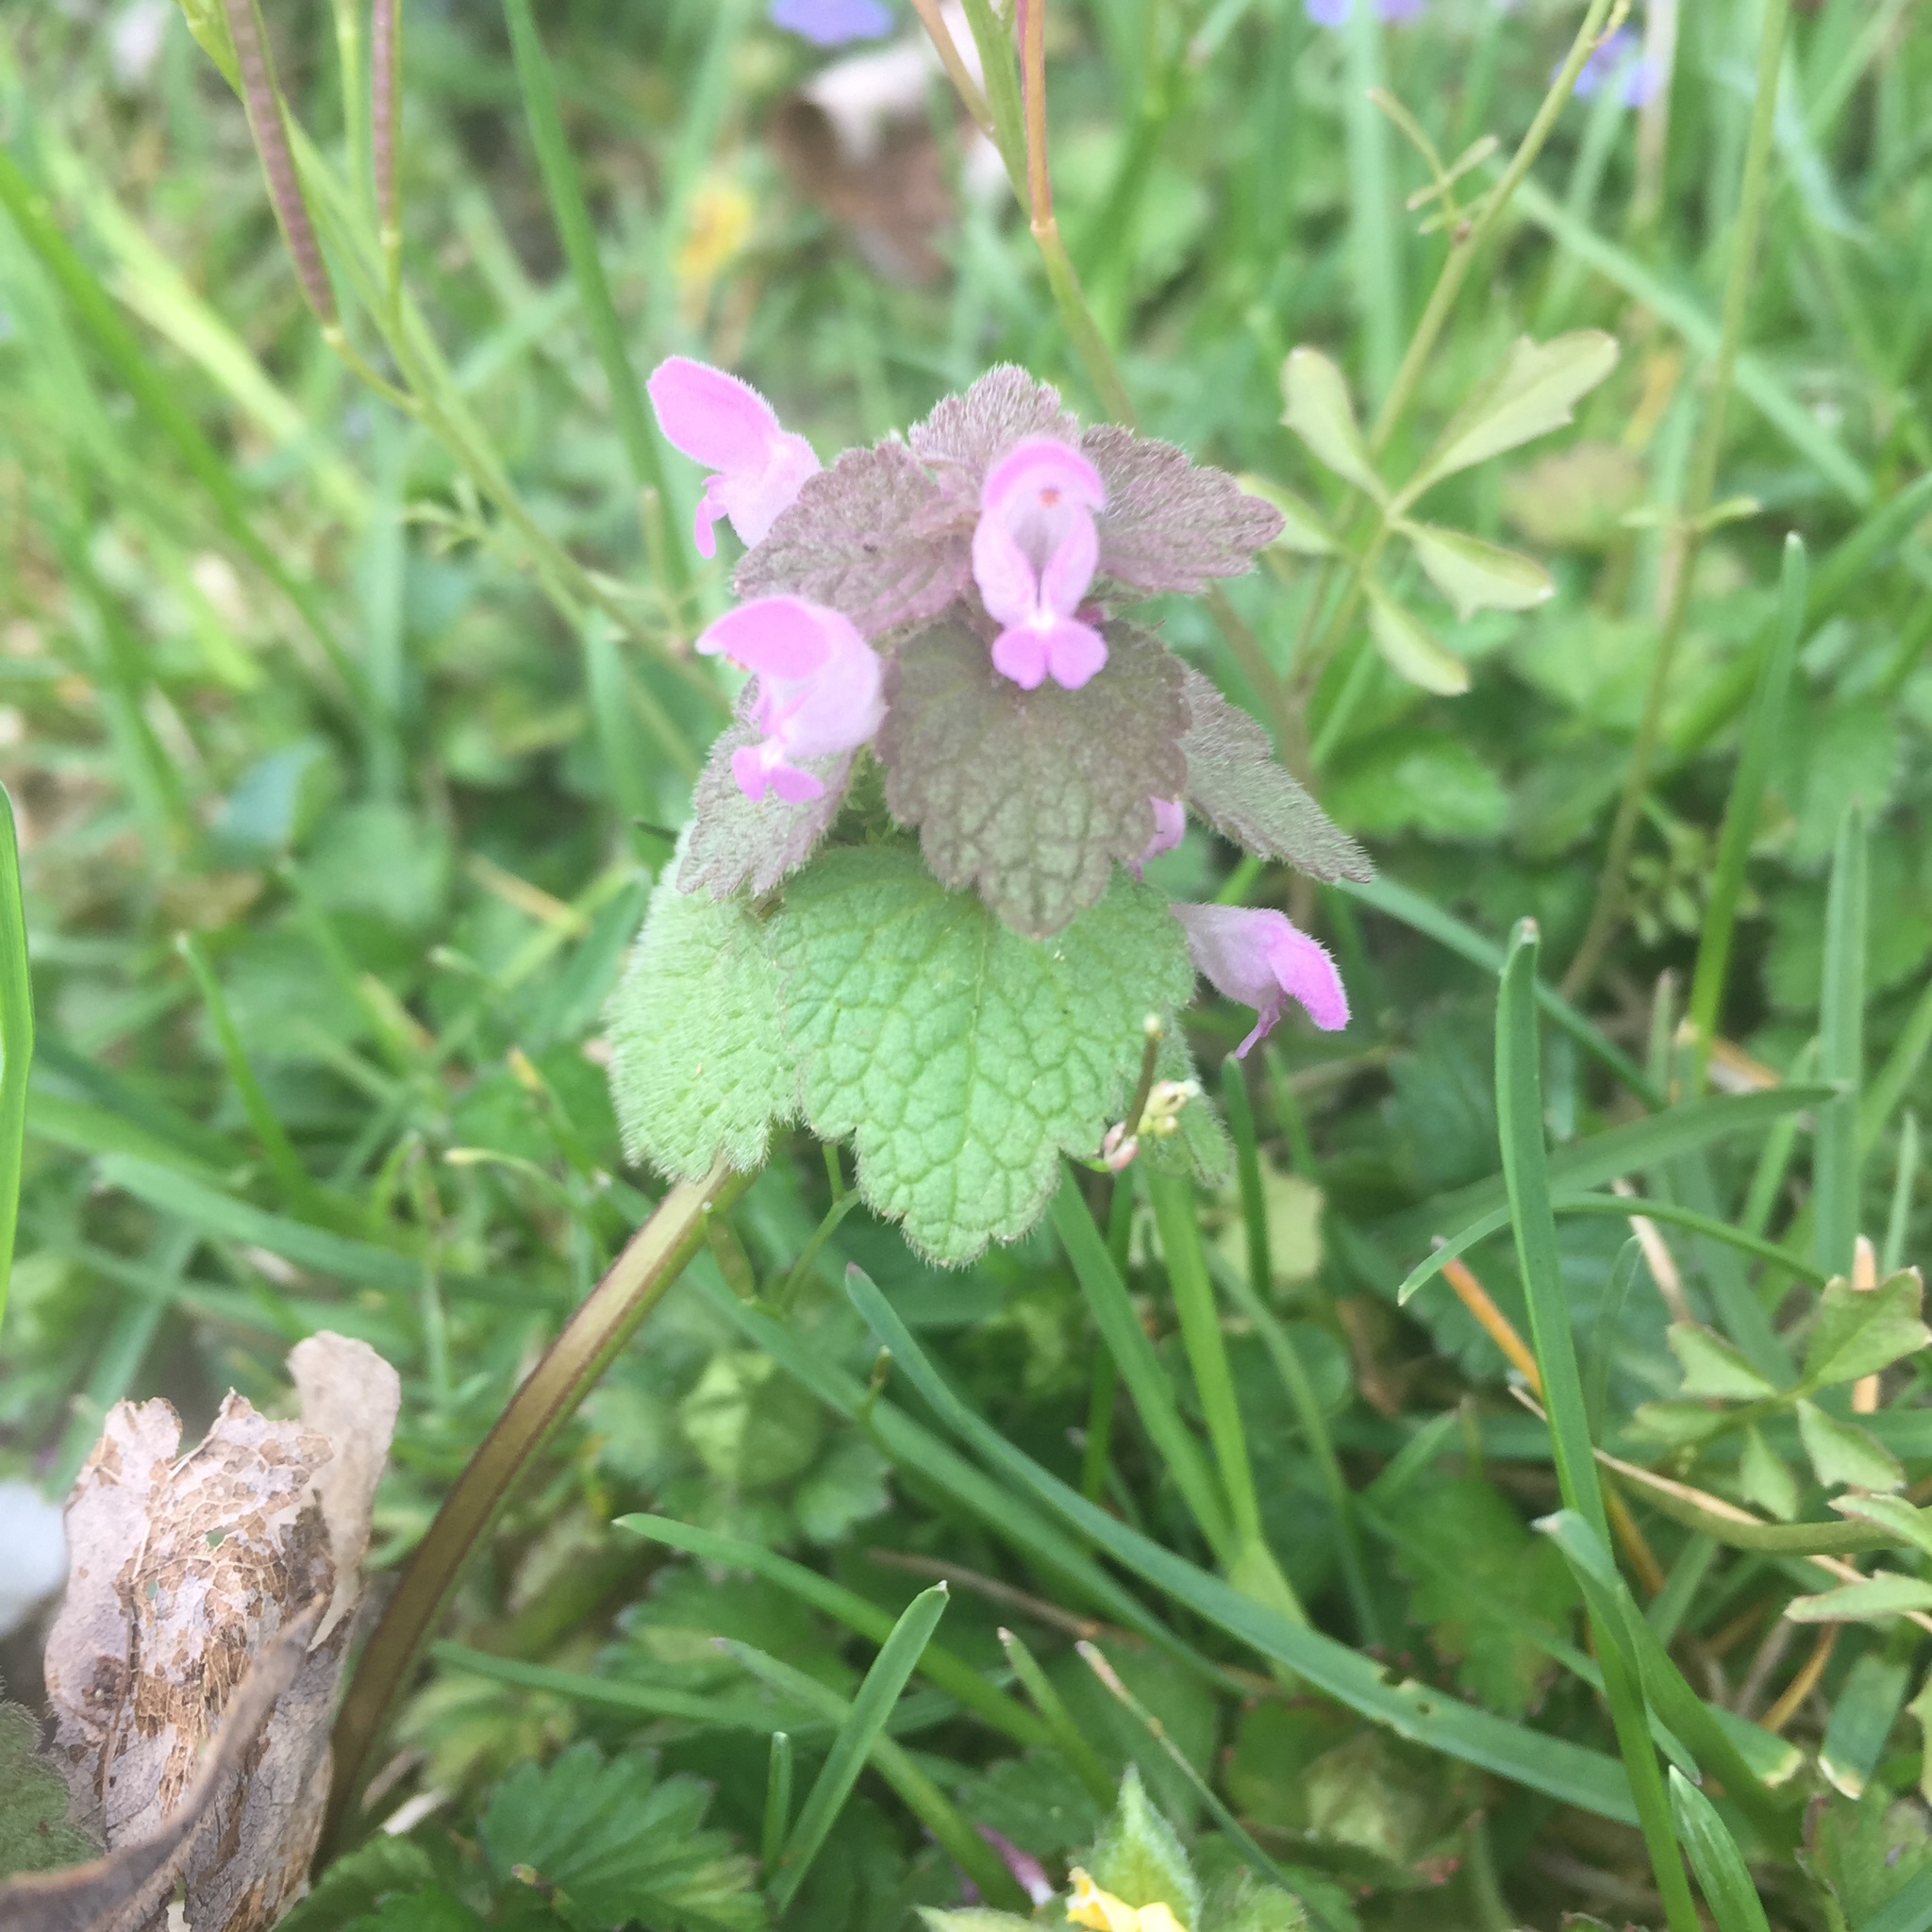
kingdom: Plantae
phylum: Tracheophyta
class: Magnoliopsida
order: Lamiales
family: Lamiaceae
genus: Lamium
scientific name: Lamium purpureum
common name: Red dead-nettle
